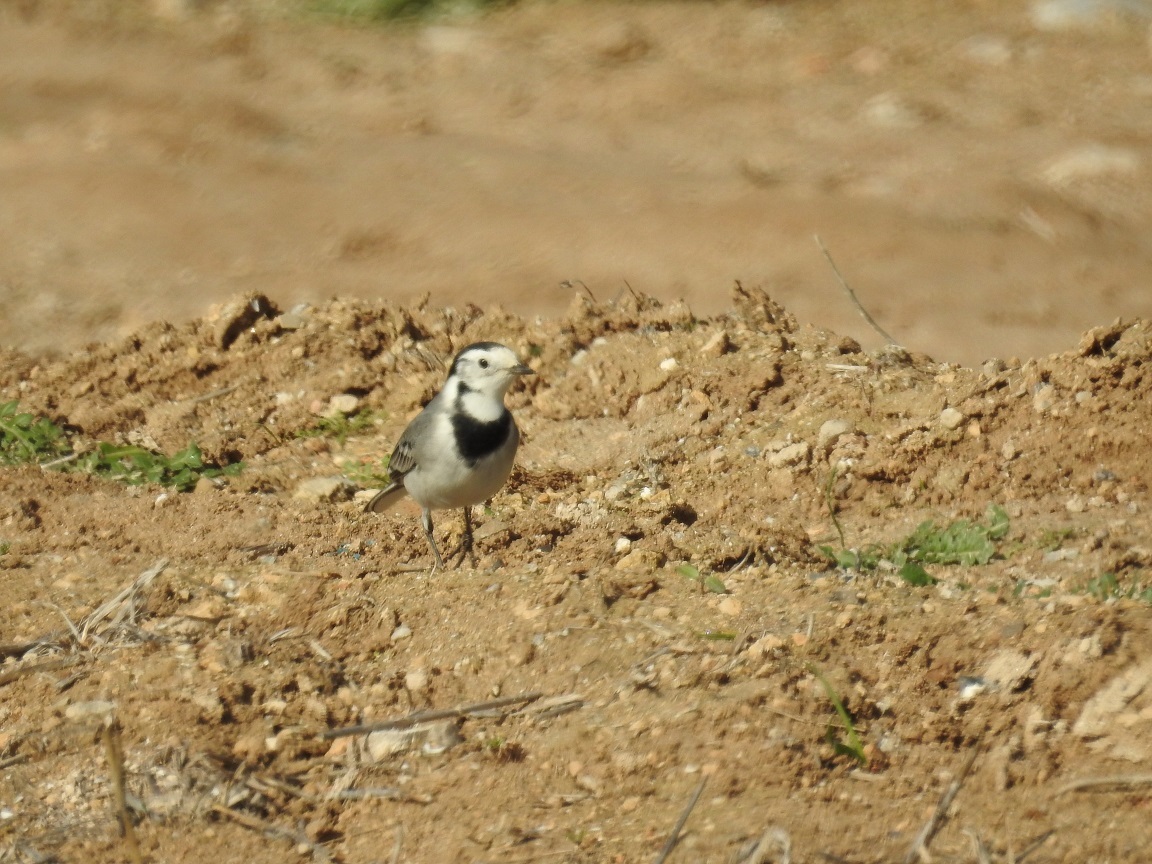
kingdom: Animalia
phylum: Chordata
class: Aves
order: Passeriformes
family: Motacillidae
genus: Motacilla
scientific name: Motacilla alba
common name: White wagtail
